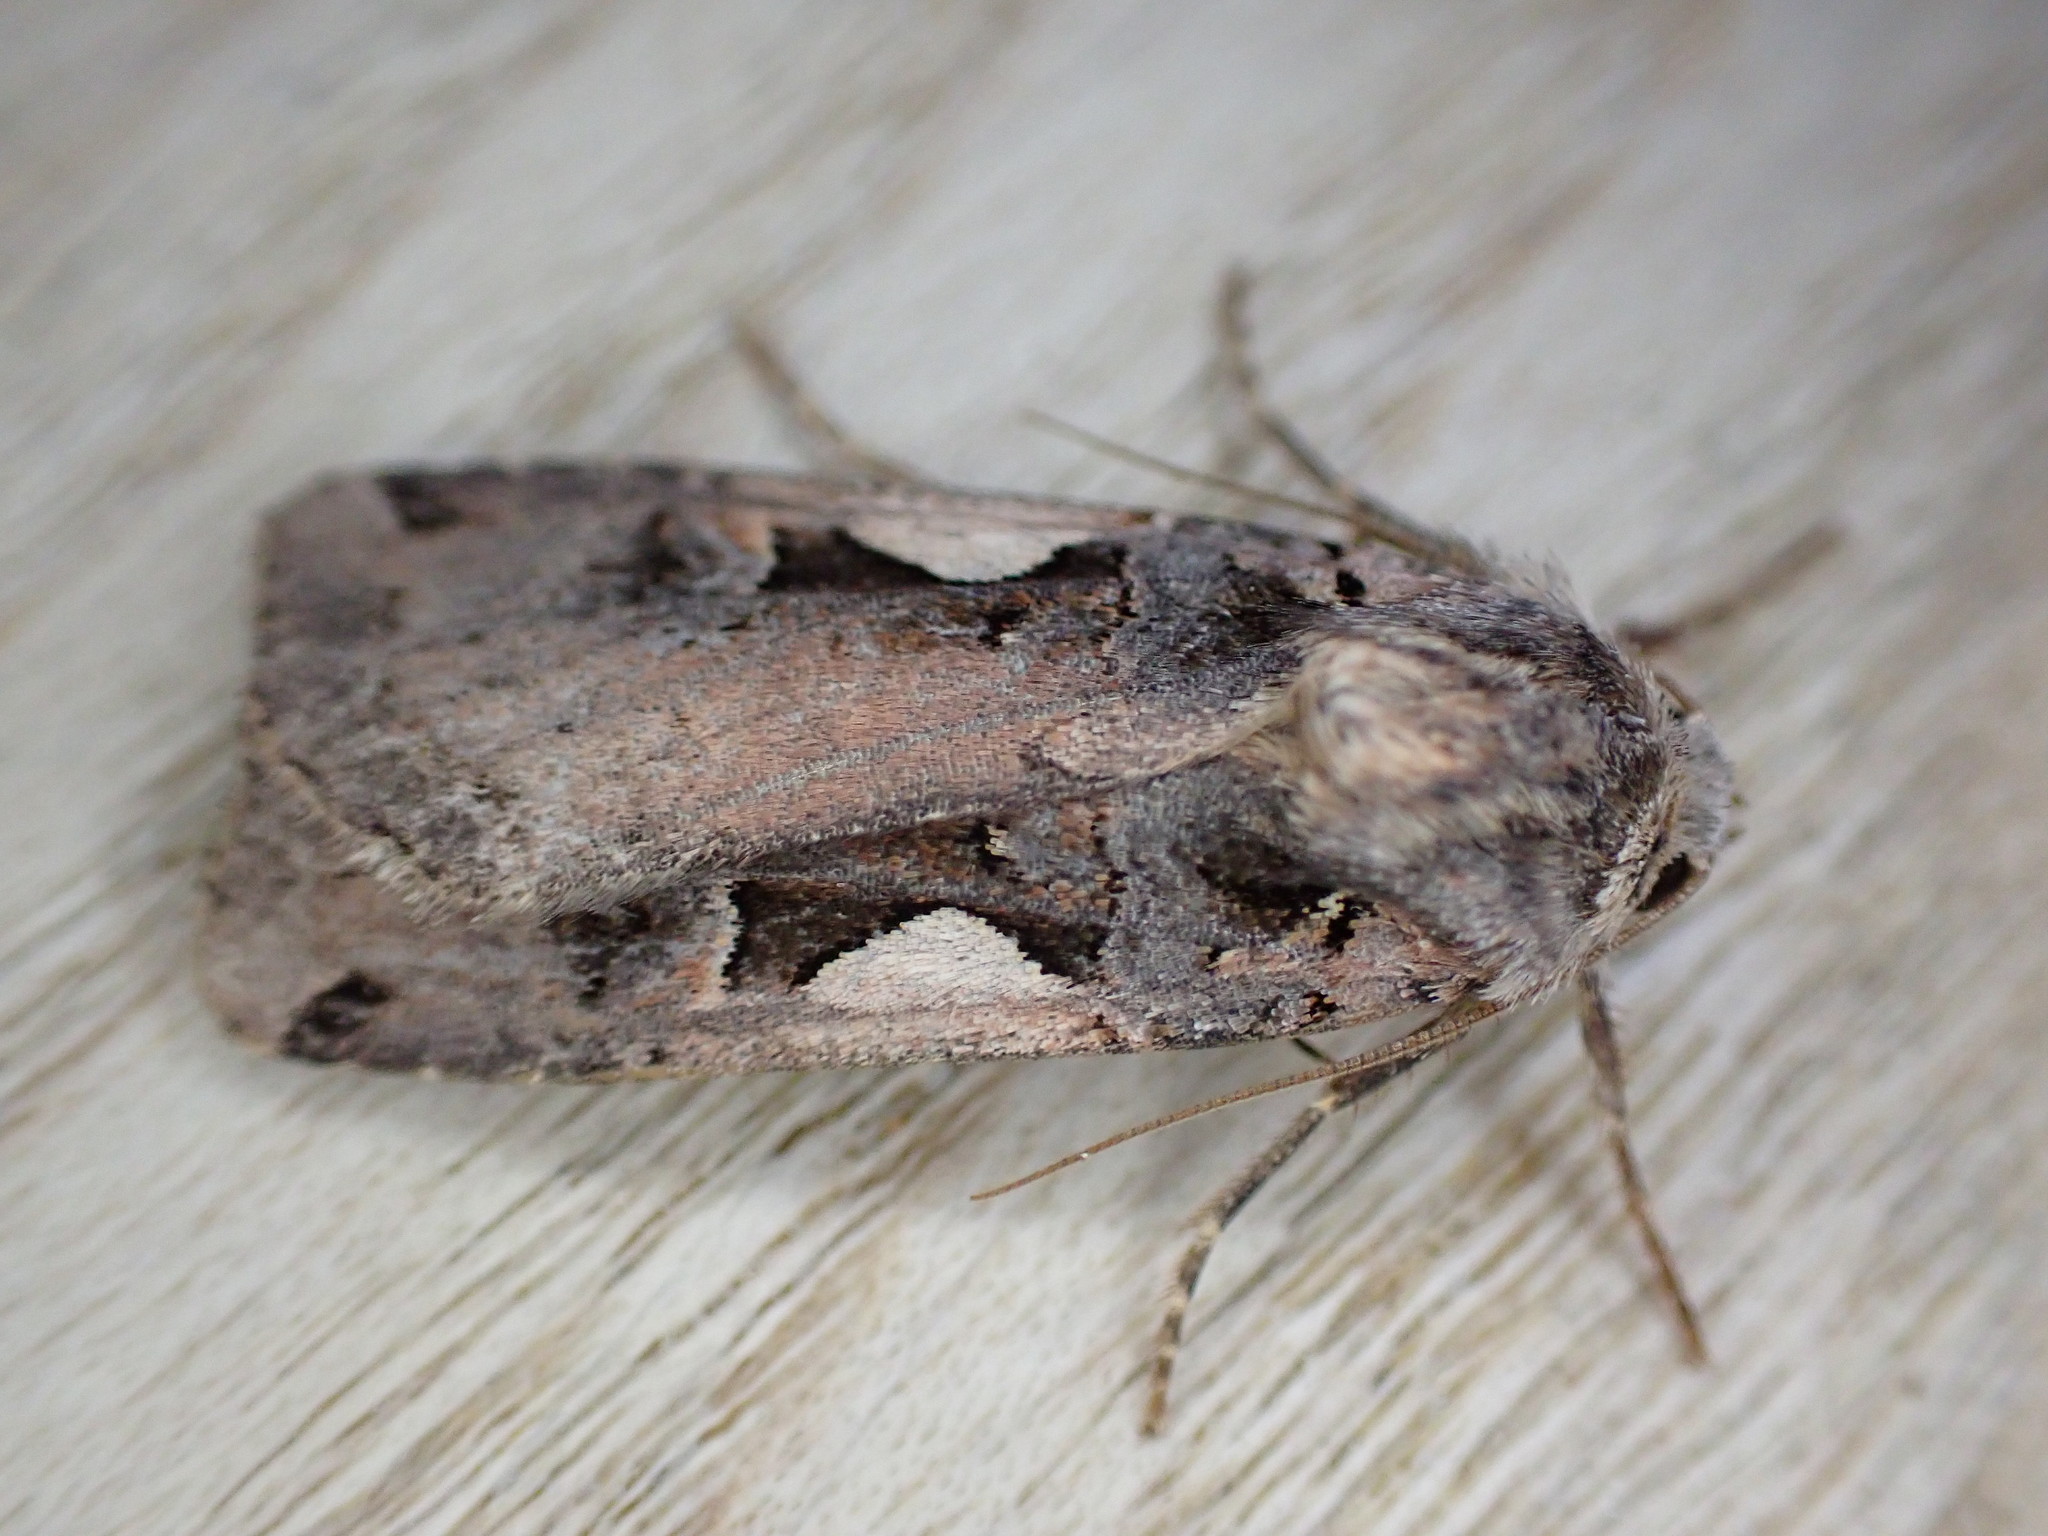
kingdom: Animalia
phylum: Arthropoda
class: Insecta
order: Lepidoptera
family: Noctuidae
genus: Xestia
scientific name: Xestia c-nigrum
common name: Setaceous hebrew character
